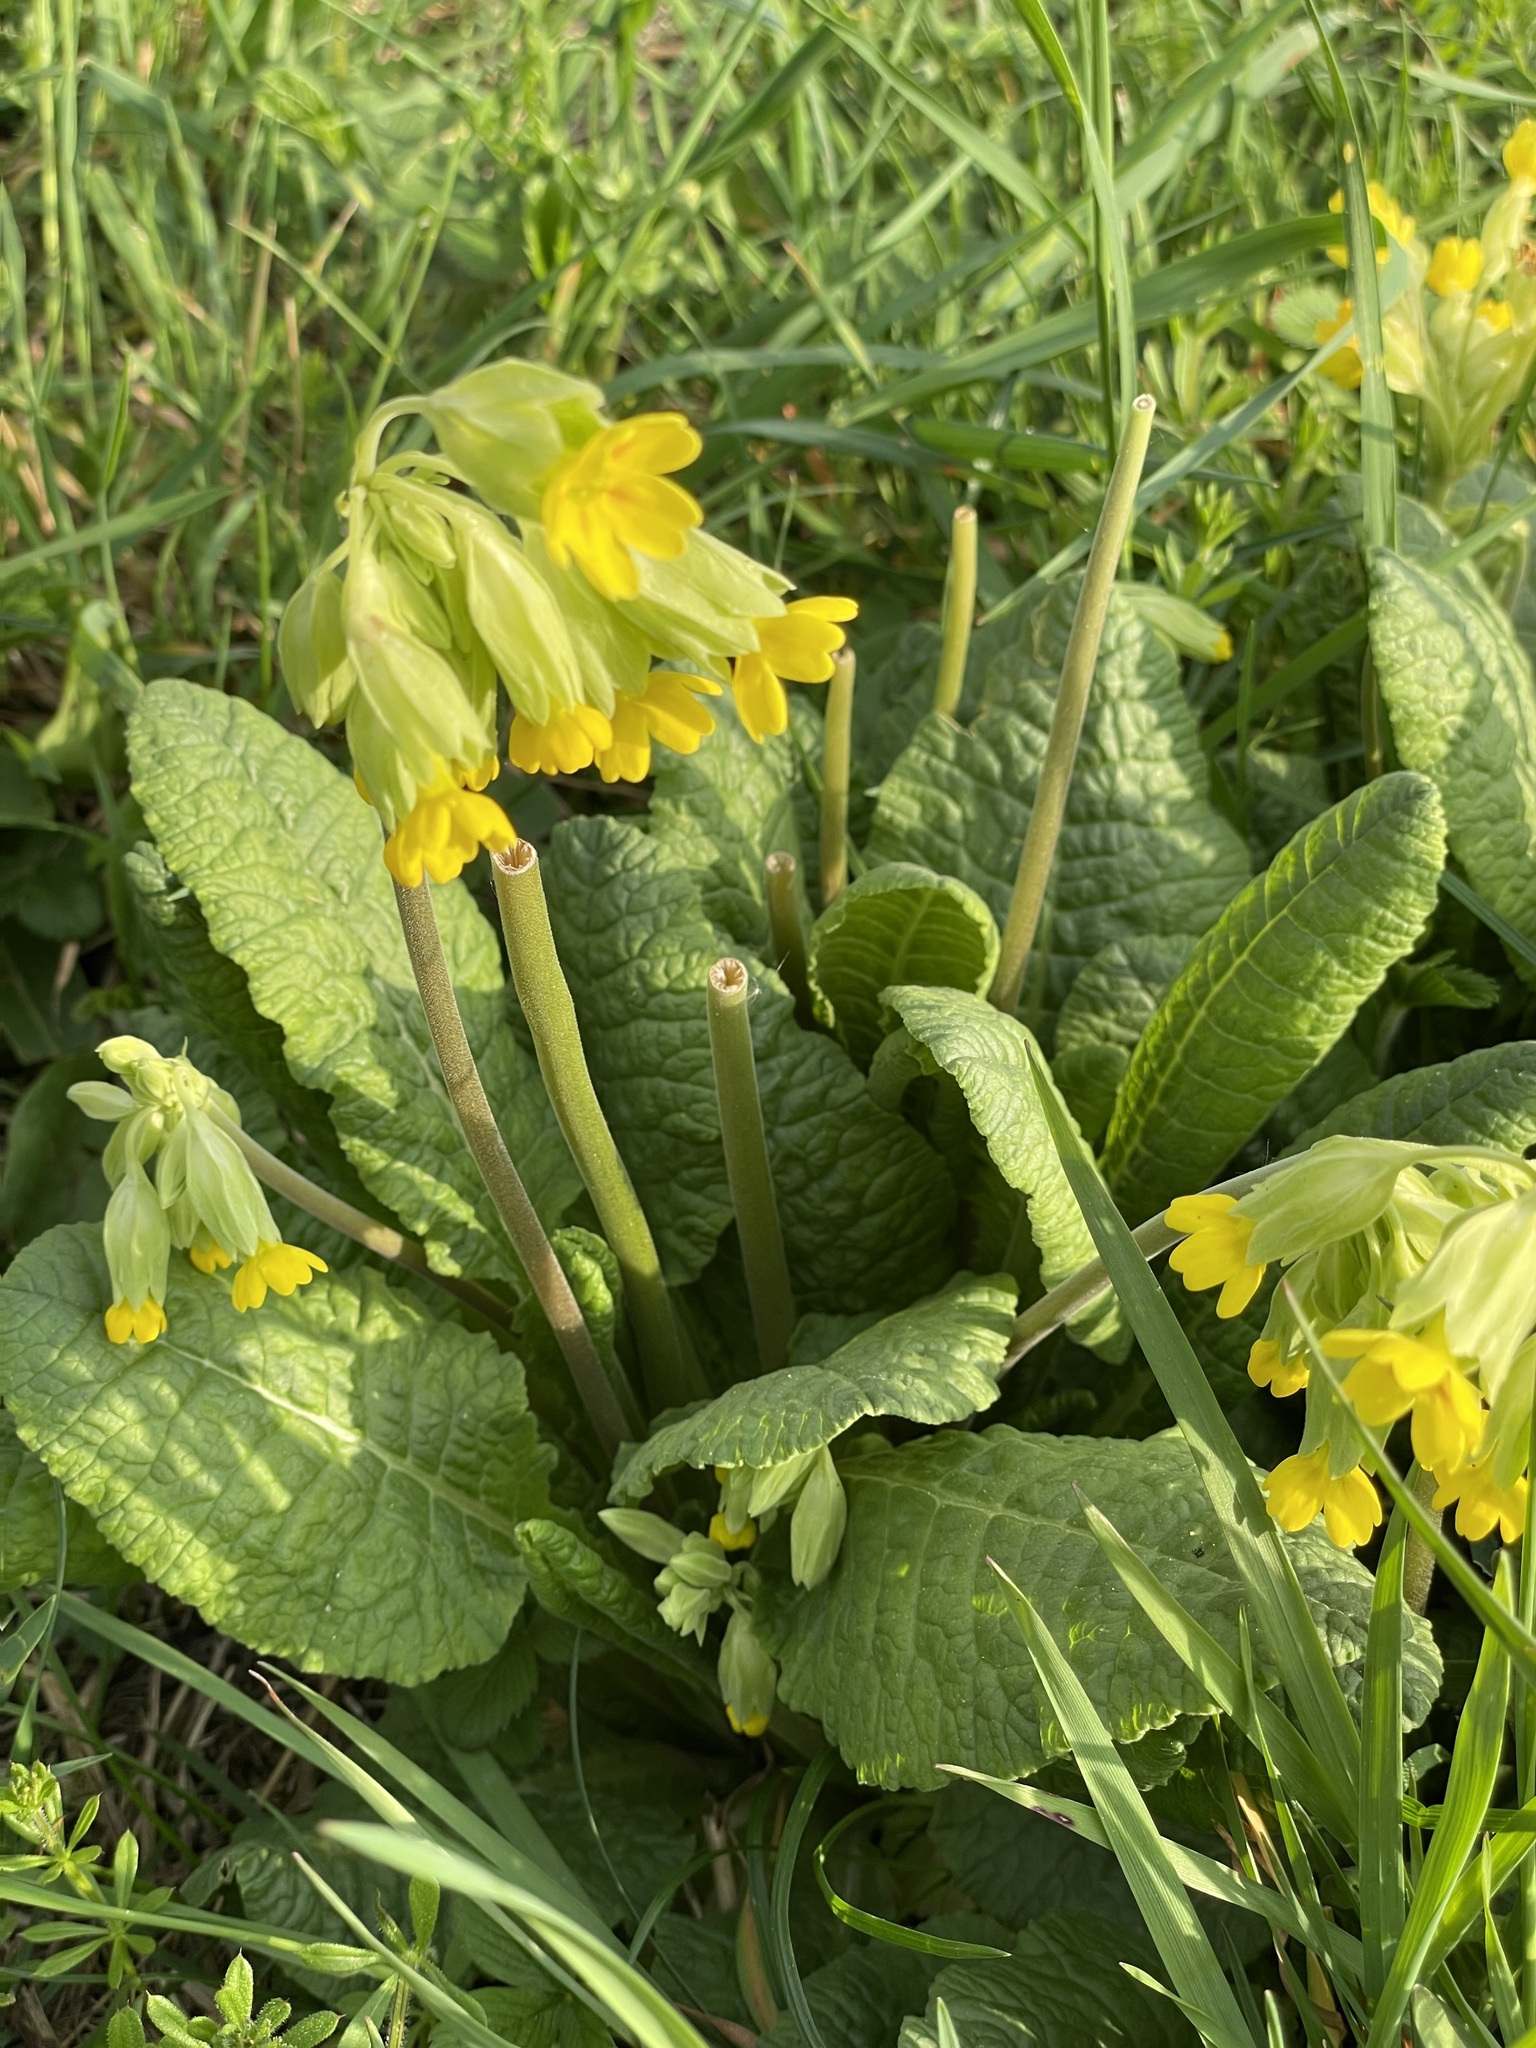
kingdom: Plantae
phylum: Tracheophyta
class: Magnoliopsida
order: Ericales
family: Primulaceae
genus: Primula
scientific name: Primula veris
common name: Cowslip
